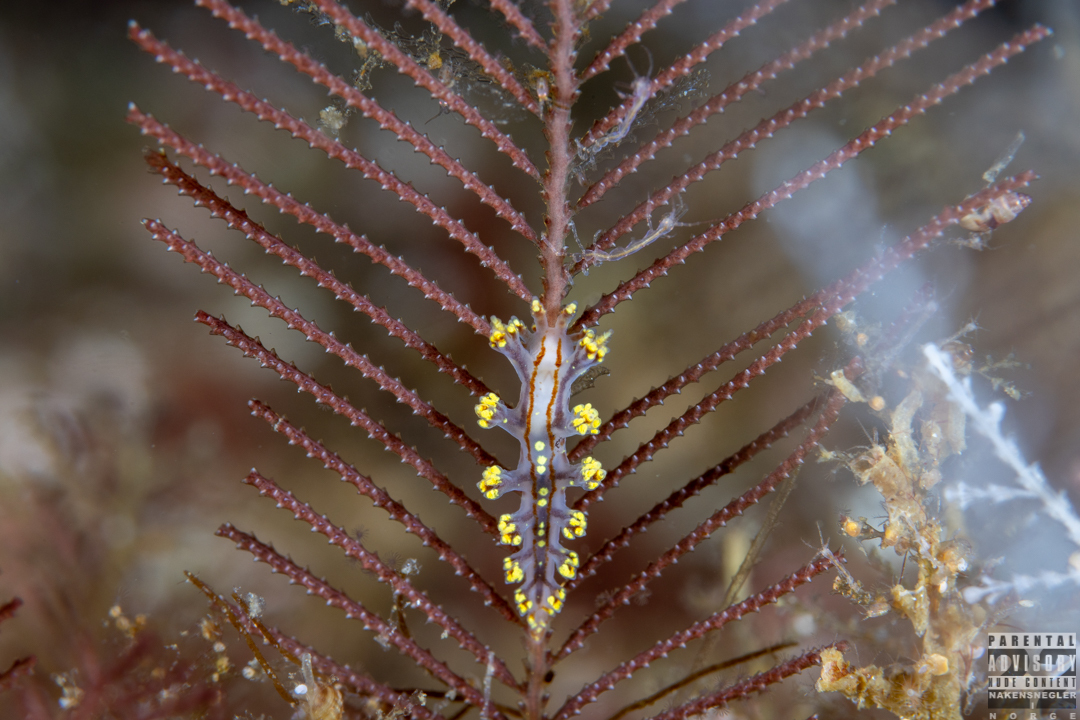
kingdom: Animalia
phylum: Mollusca
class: Gastropoda
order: Nudibranchia
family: Dendronotidae
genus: Dendronotus
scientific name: Dendronotus yrjargul
